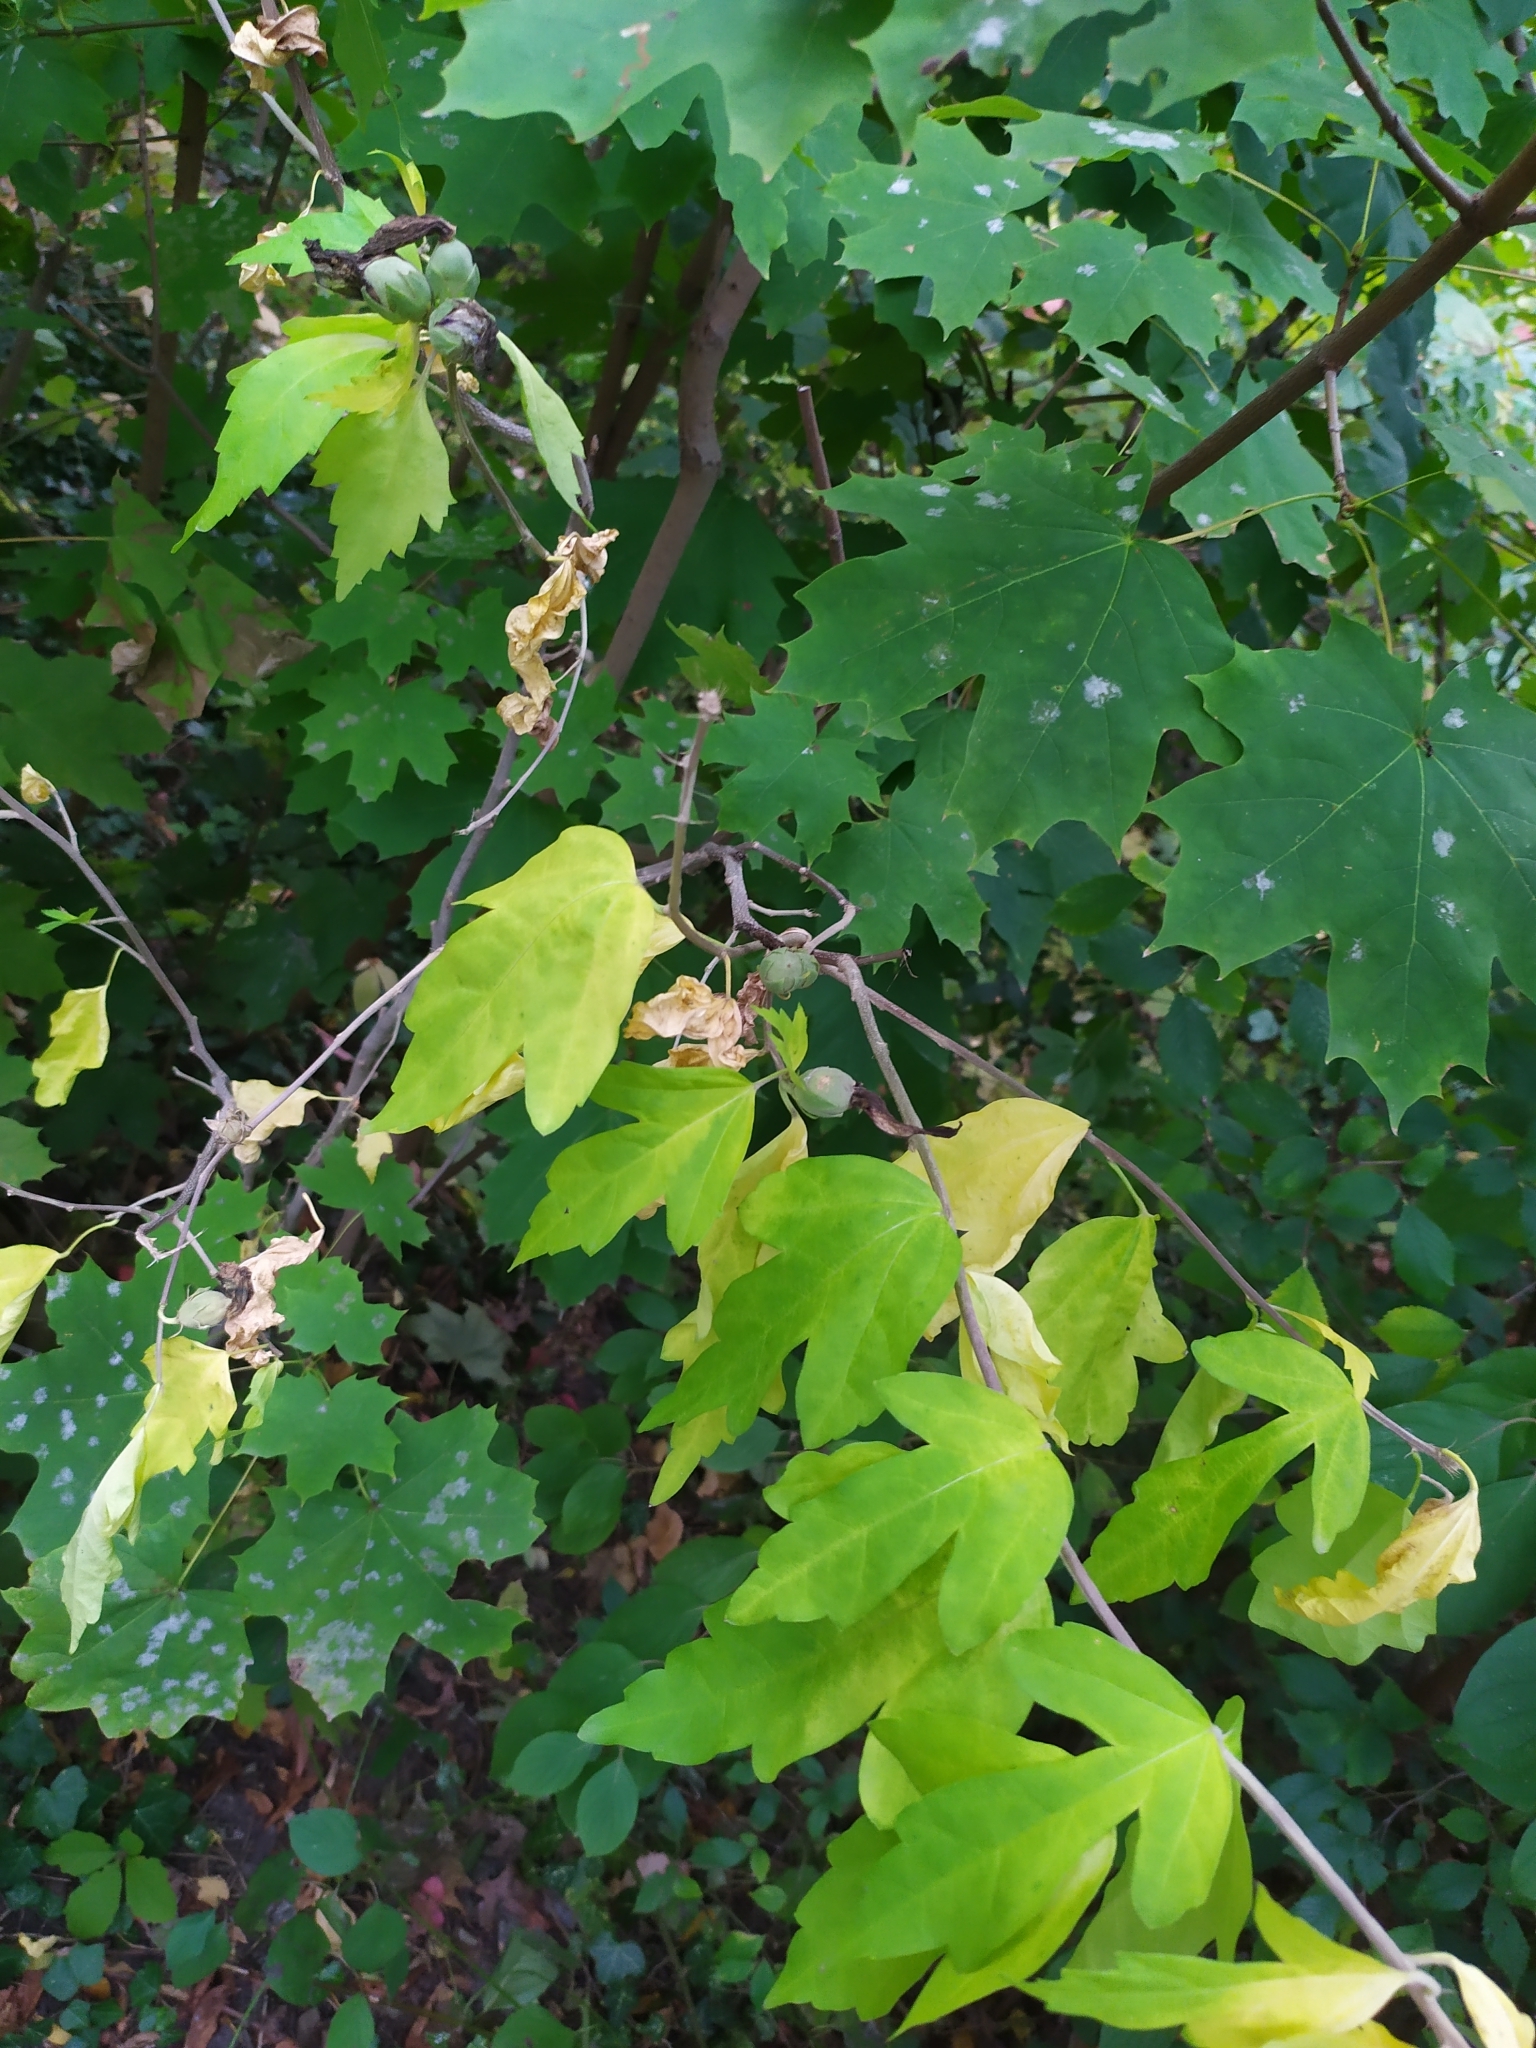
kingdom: Plantae
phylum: Tracheophyta
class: Magnoliopsida
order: Malvales
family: Malvaceae
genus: Hibiscus
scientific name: Hibiscus syriacus
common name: Syrian ketmia
